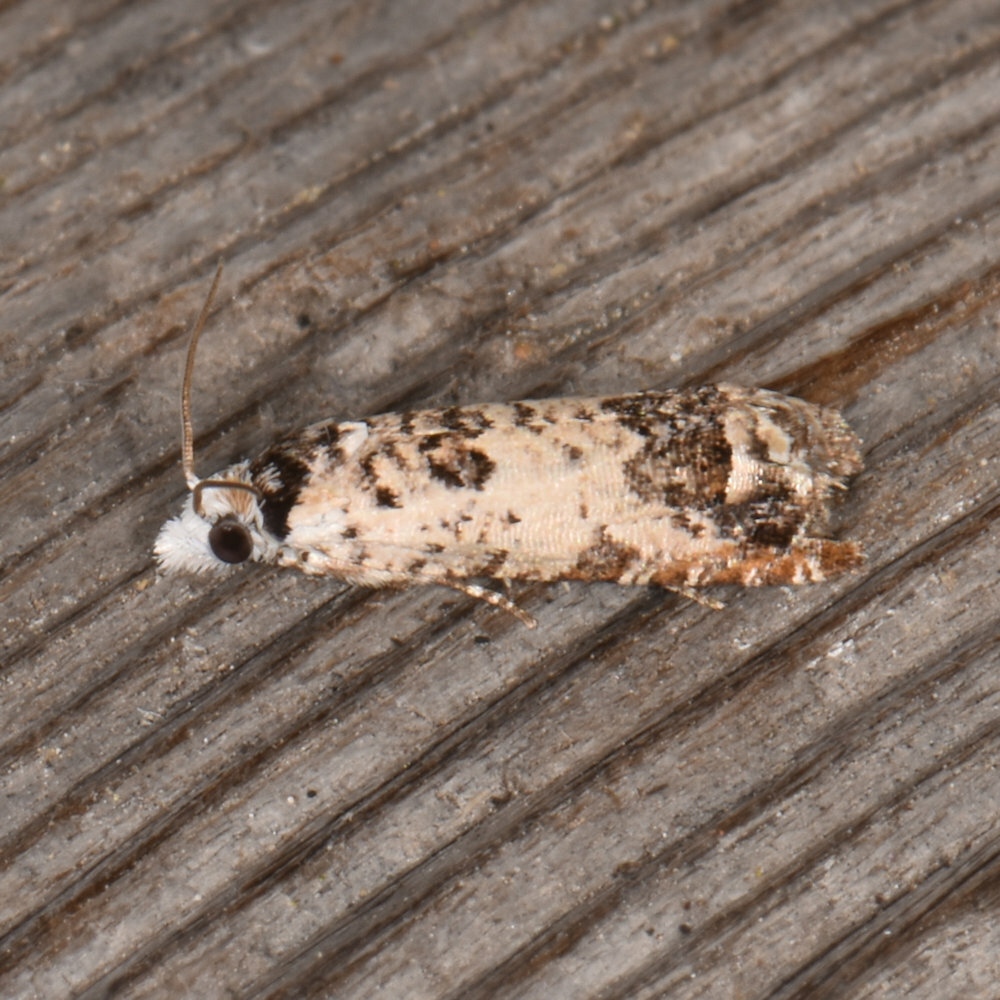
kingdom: Animalia
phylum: Arthropoda
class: Insecta
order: Lepidoptera
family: Tortricidae
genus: Eucosma
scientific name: Eucosma ornatula
